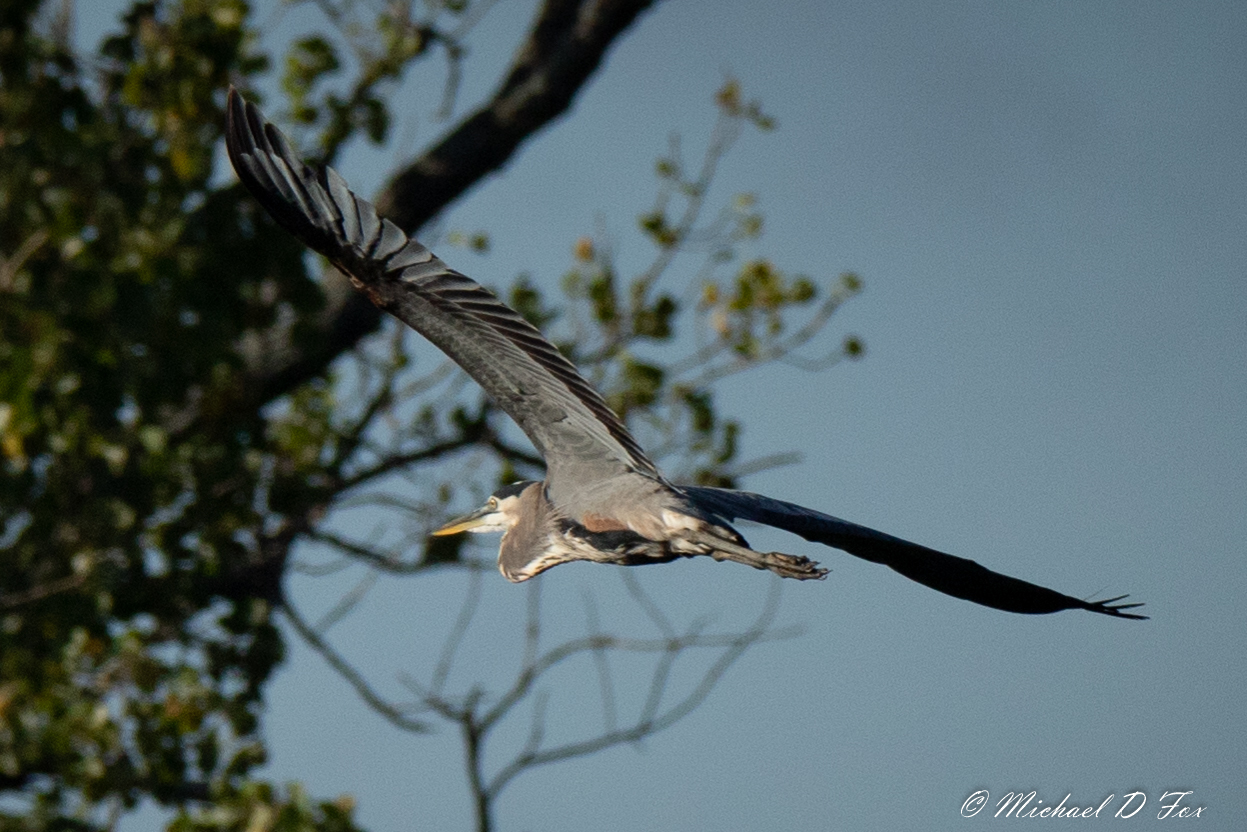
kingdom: Animalia
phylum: Chordata
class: Aves
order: Pelecaniformes
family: Ardeidae
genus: Ardea
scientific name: Ardea herodias
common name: Great blue heron
